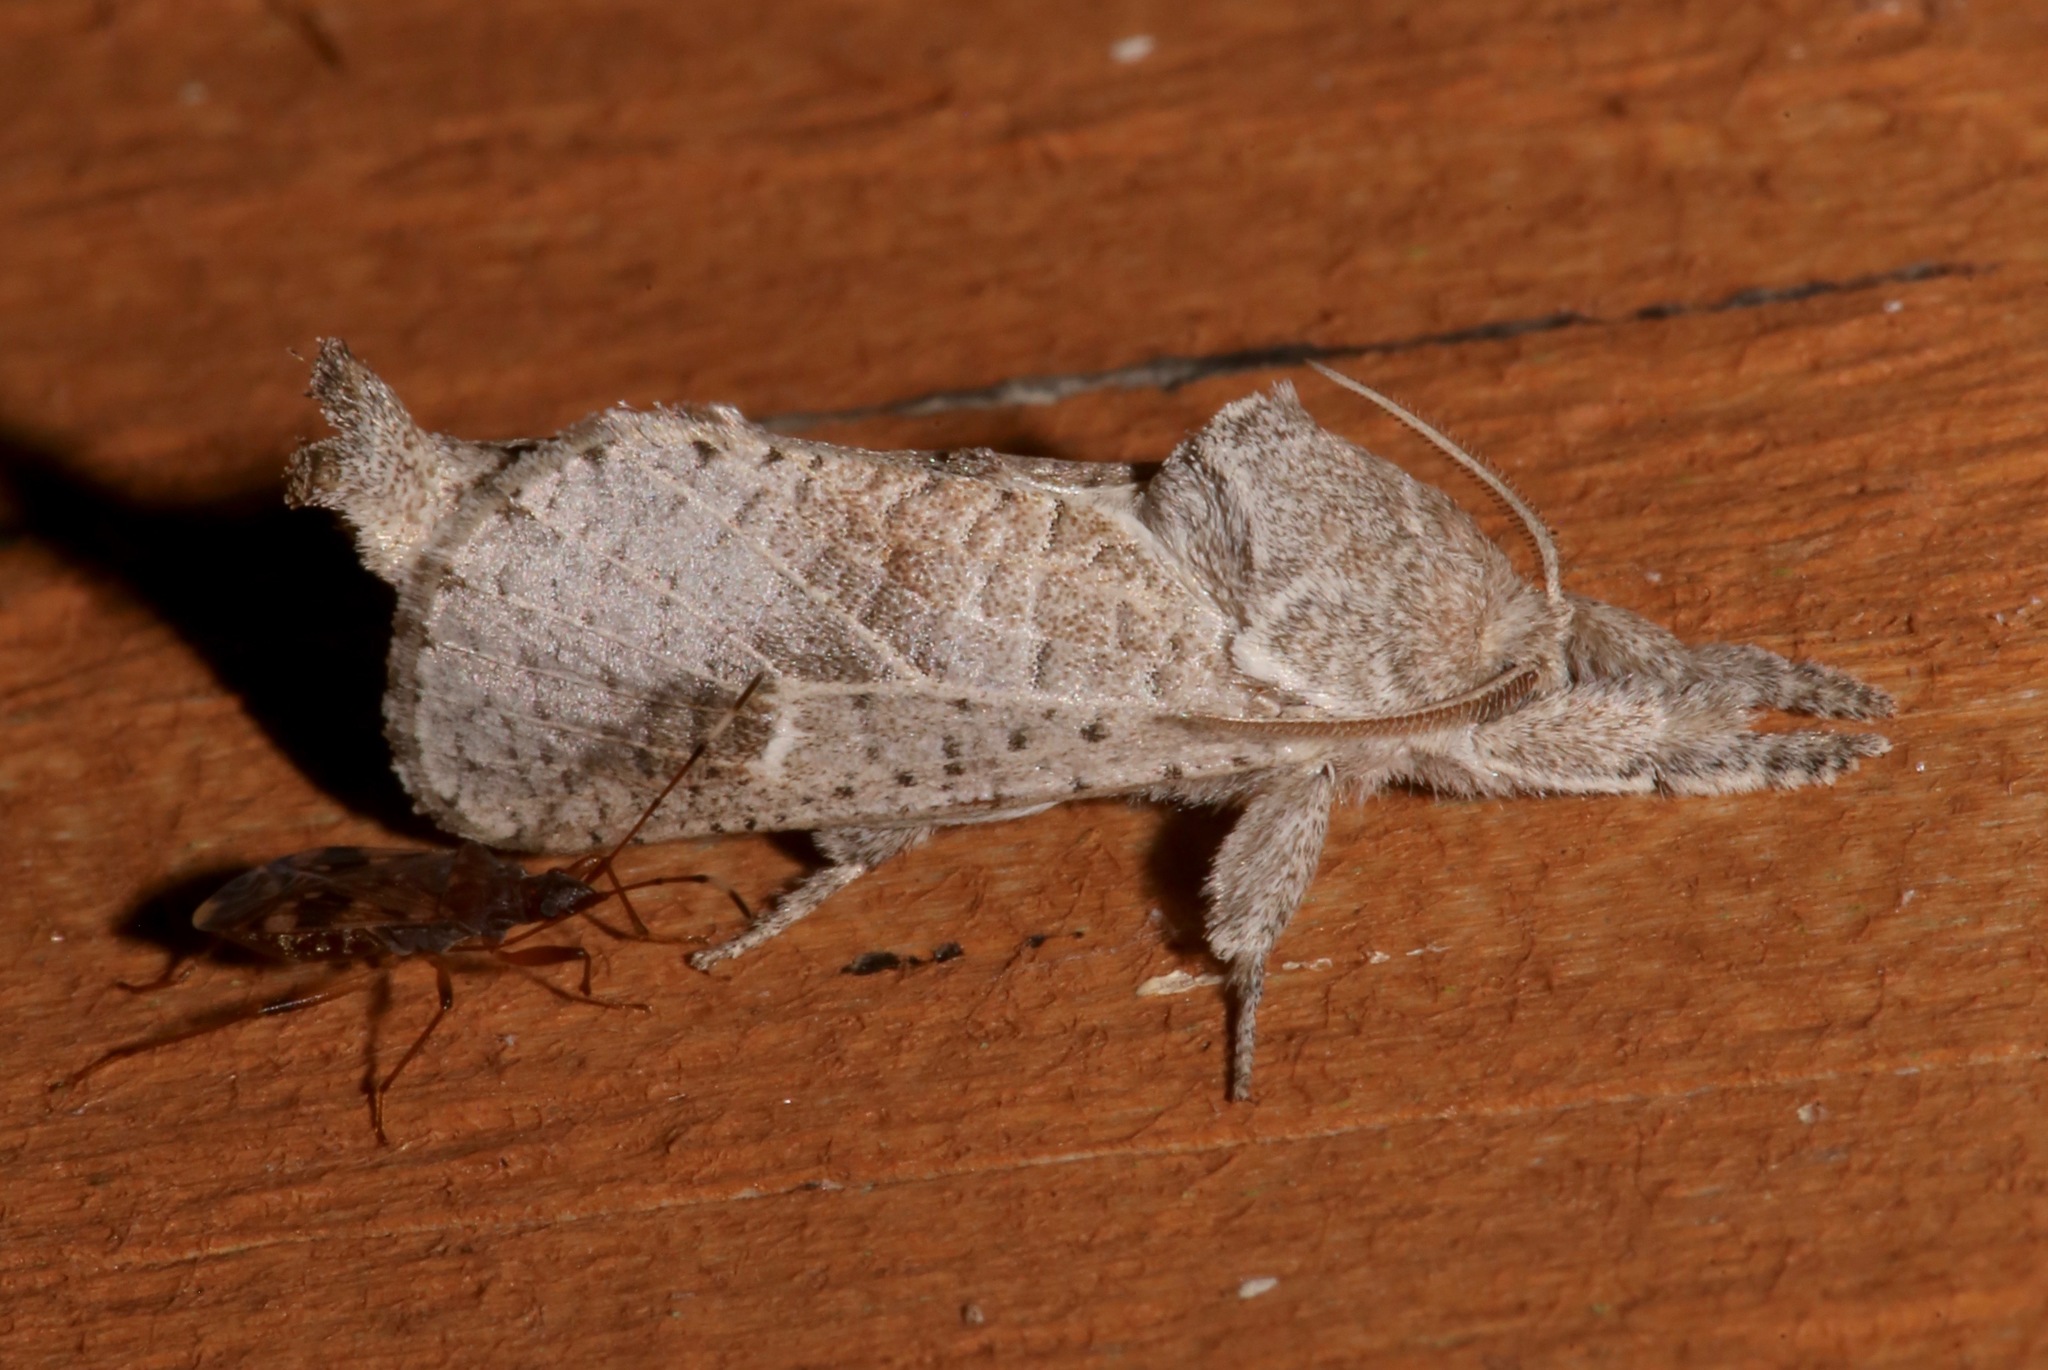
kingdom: Animalia
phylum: Arthropoda
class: Insecta
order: Lepidoptera
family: Cossidae
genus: Givira
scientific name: Givira anna
